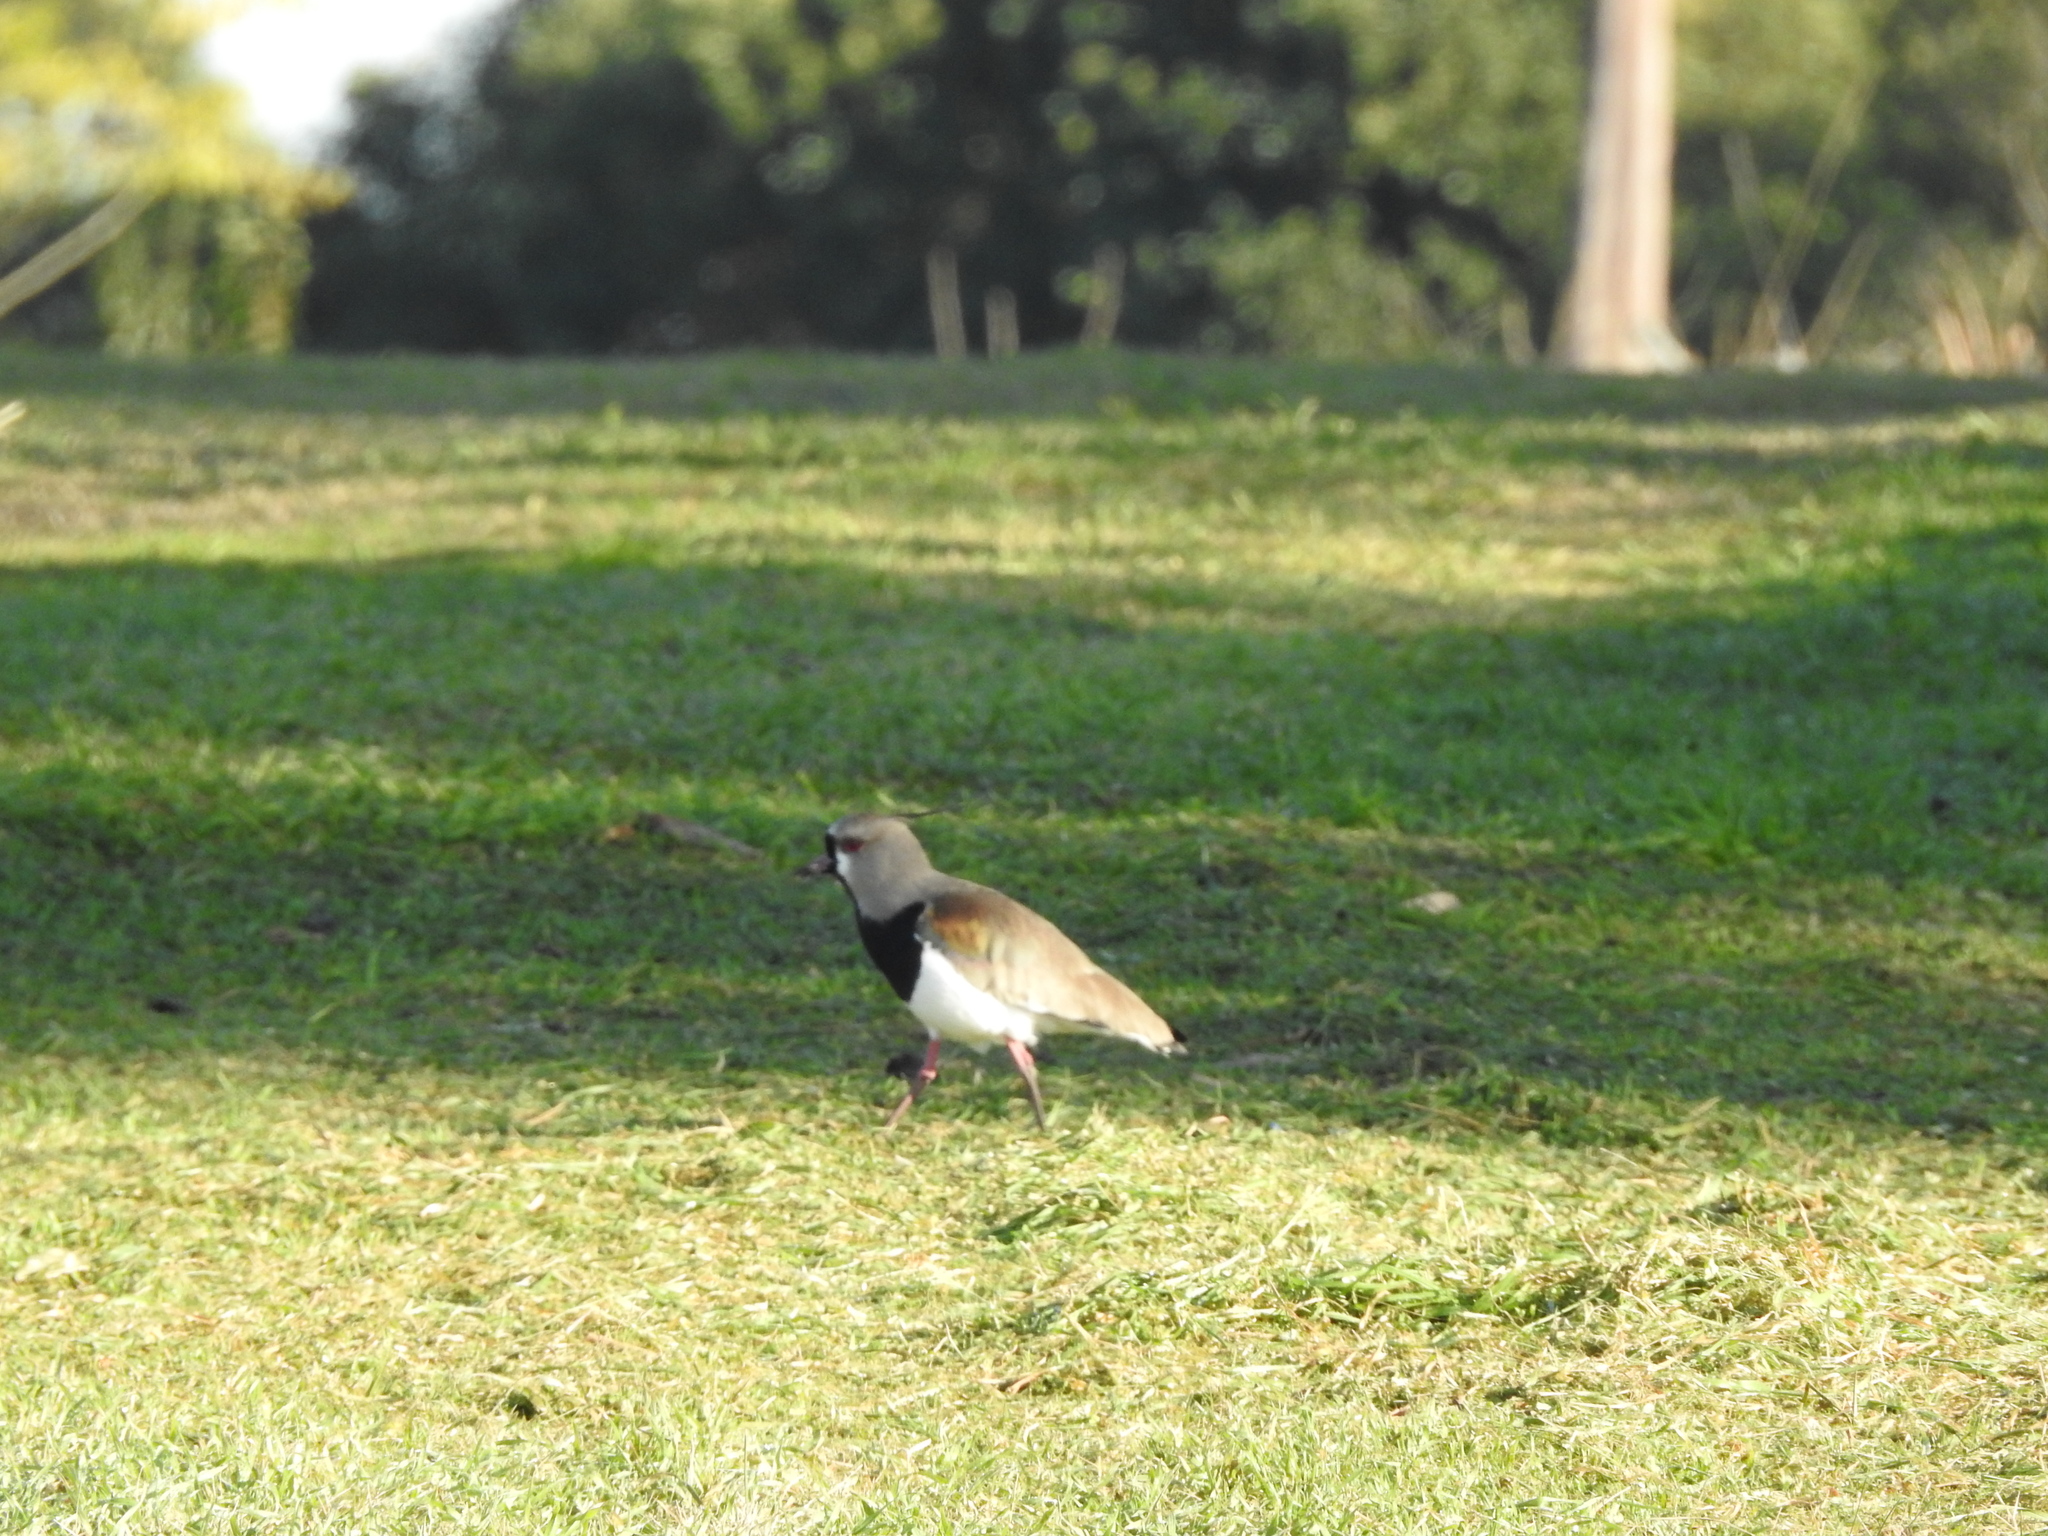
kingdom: Animalia
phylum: Chordata
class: Aves
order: Charadriiformes
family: Charadriidae
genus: Vanellus
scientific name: Vanellus chilensis
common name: Southern lapwing
